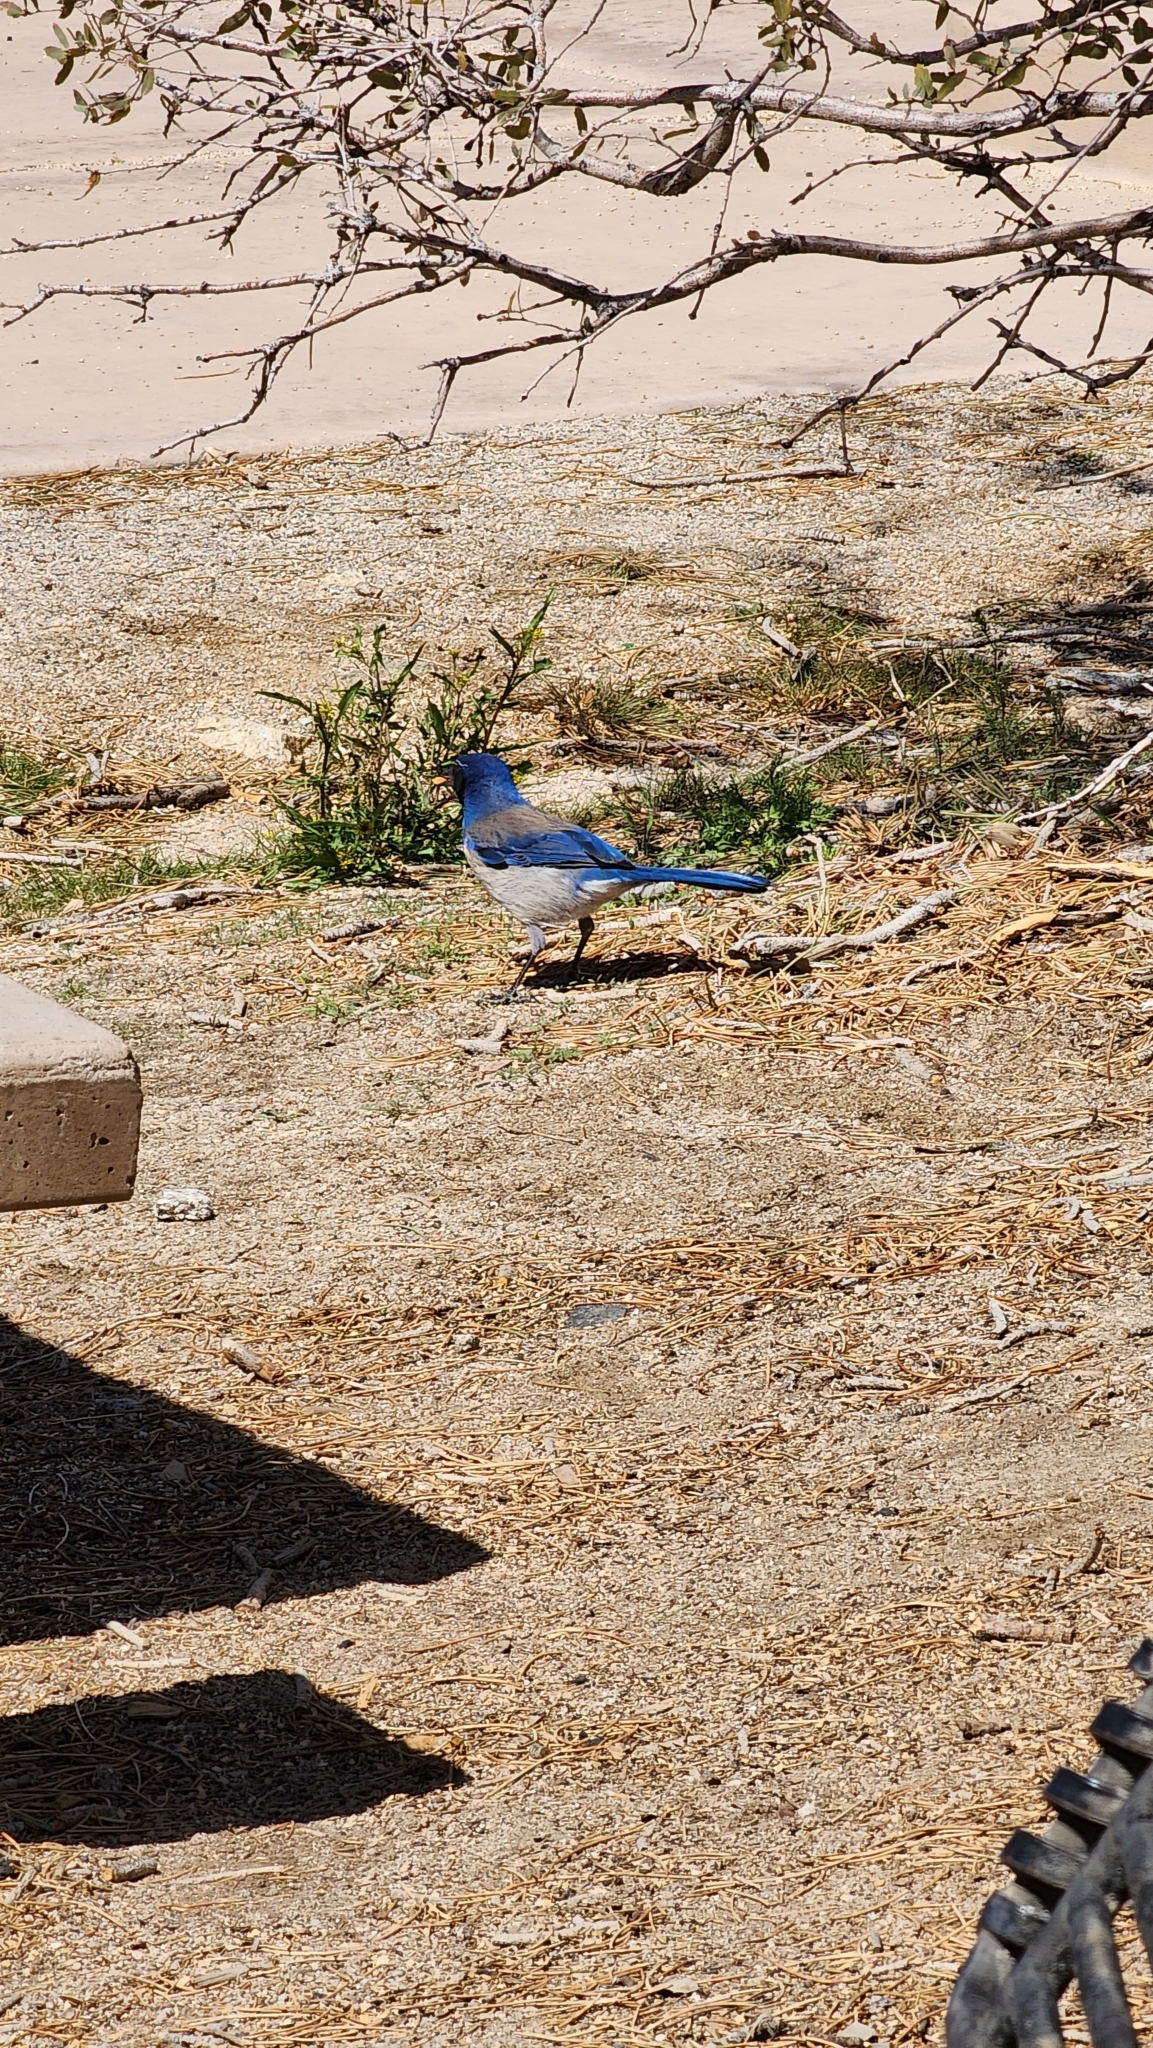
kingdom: Animalia
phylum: Chordata
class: Aves
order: Passeriformes
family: Corvidae
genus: Aphelocoma
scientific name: Aphelocoma californica
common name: California scrub-jay
